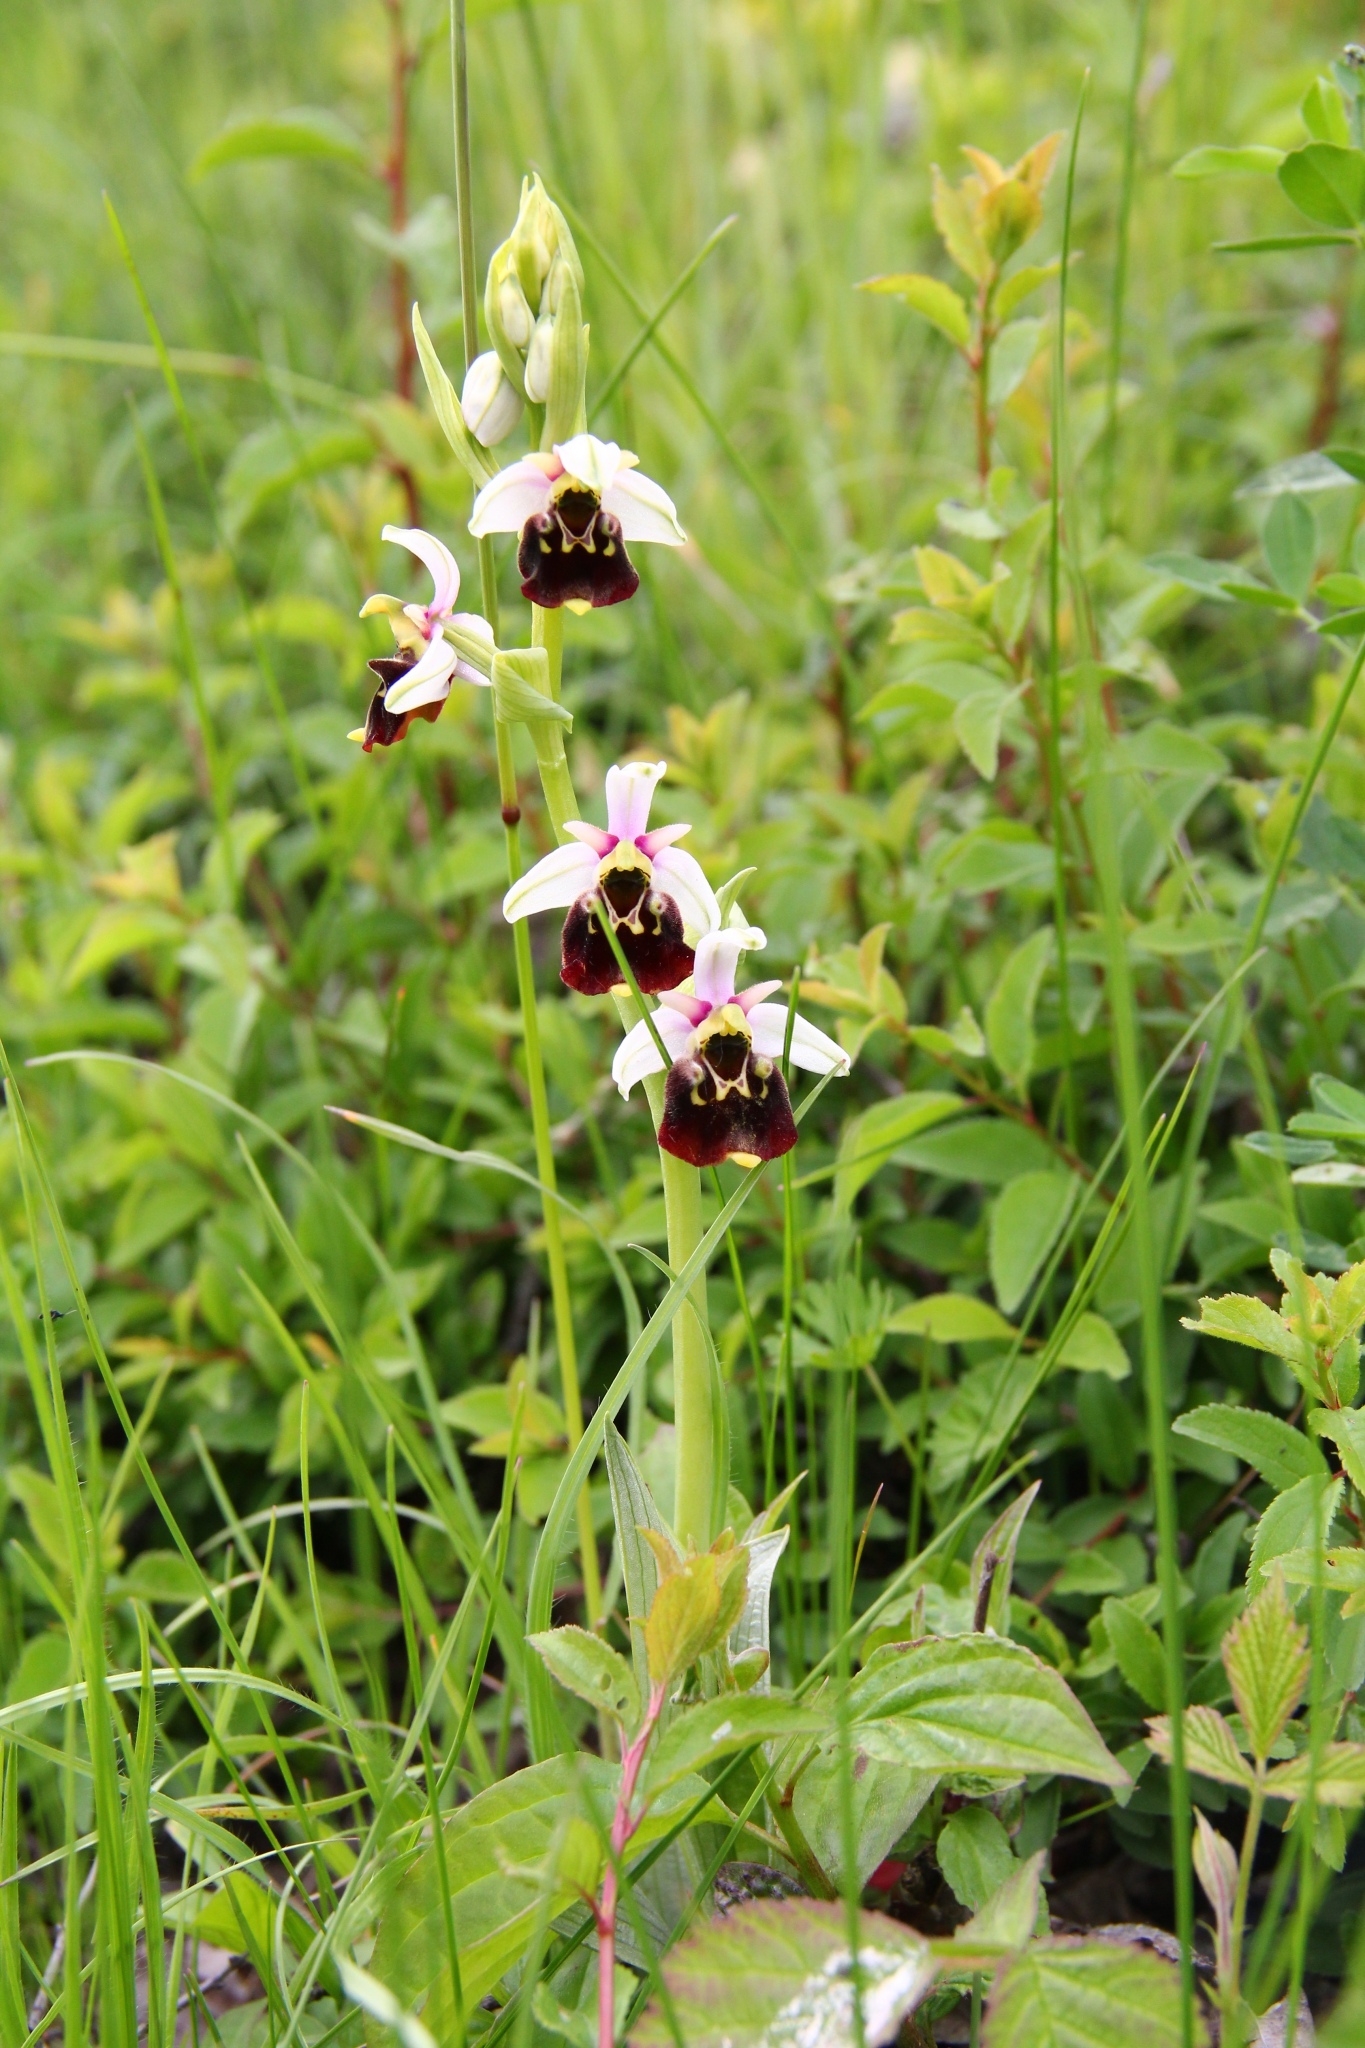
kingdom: Plantae
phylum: Tracheophyta
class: Liliopsida
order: Asparagales
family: Orchidaceae
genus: Ophrys
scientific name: Ophrys holosericea
